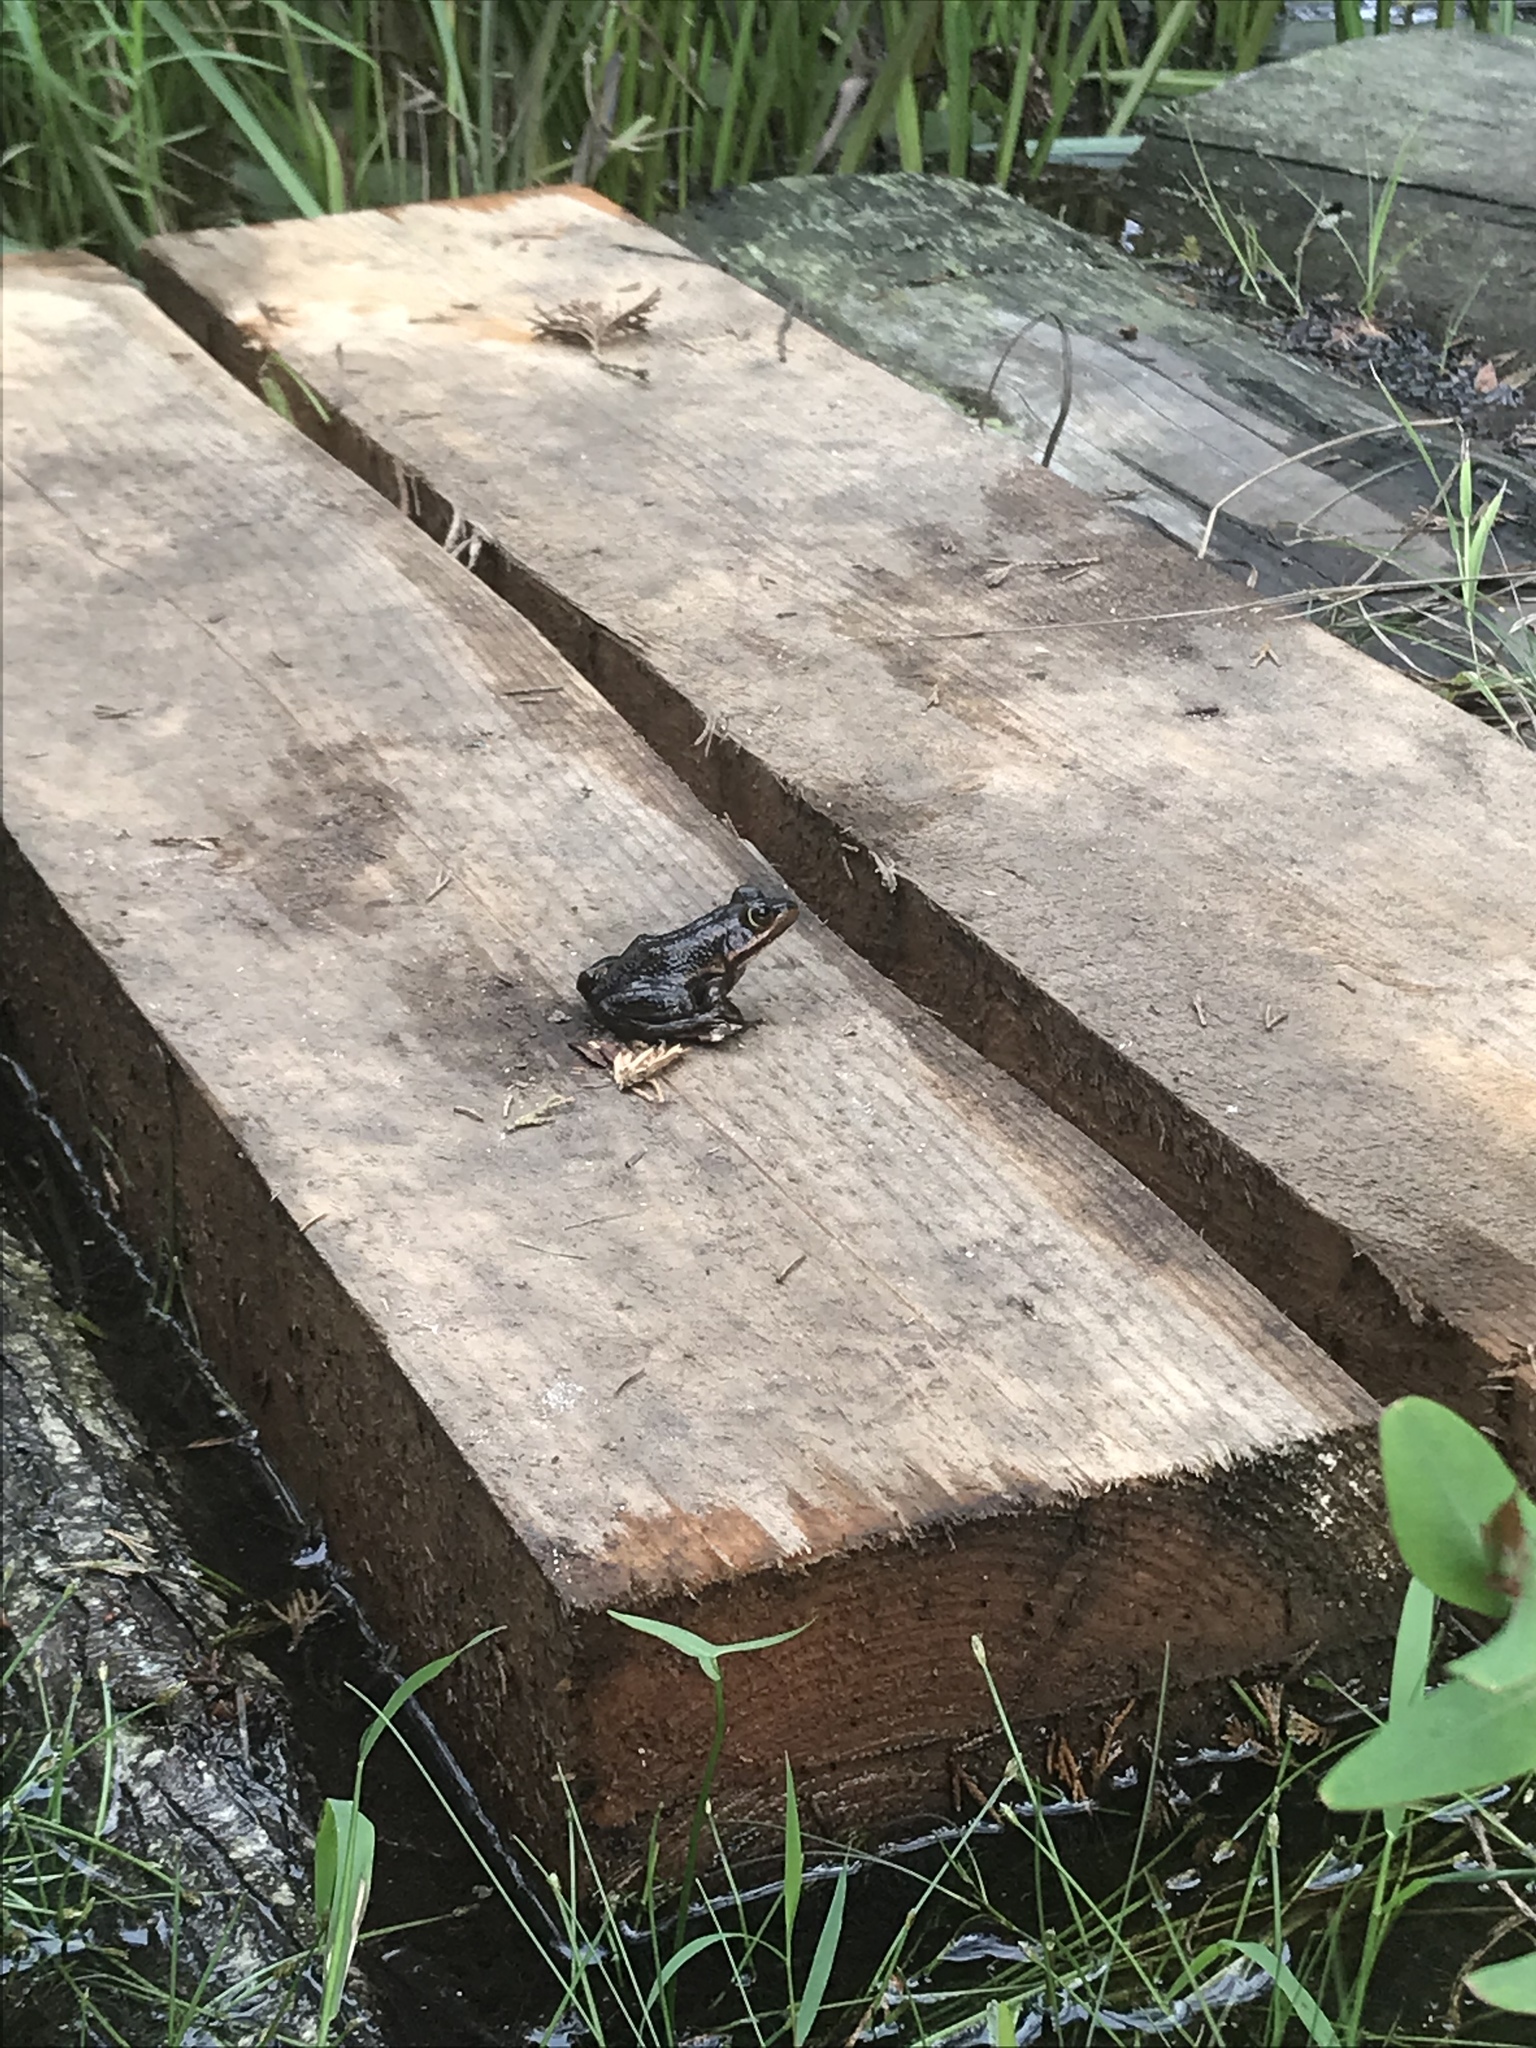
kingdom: Animalia
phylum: Chordata
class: Amphibia
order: Anura
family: Ranidae
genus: Lithobates
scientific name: Lithobates virgatipes
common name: Carpenter frog
